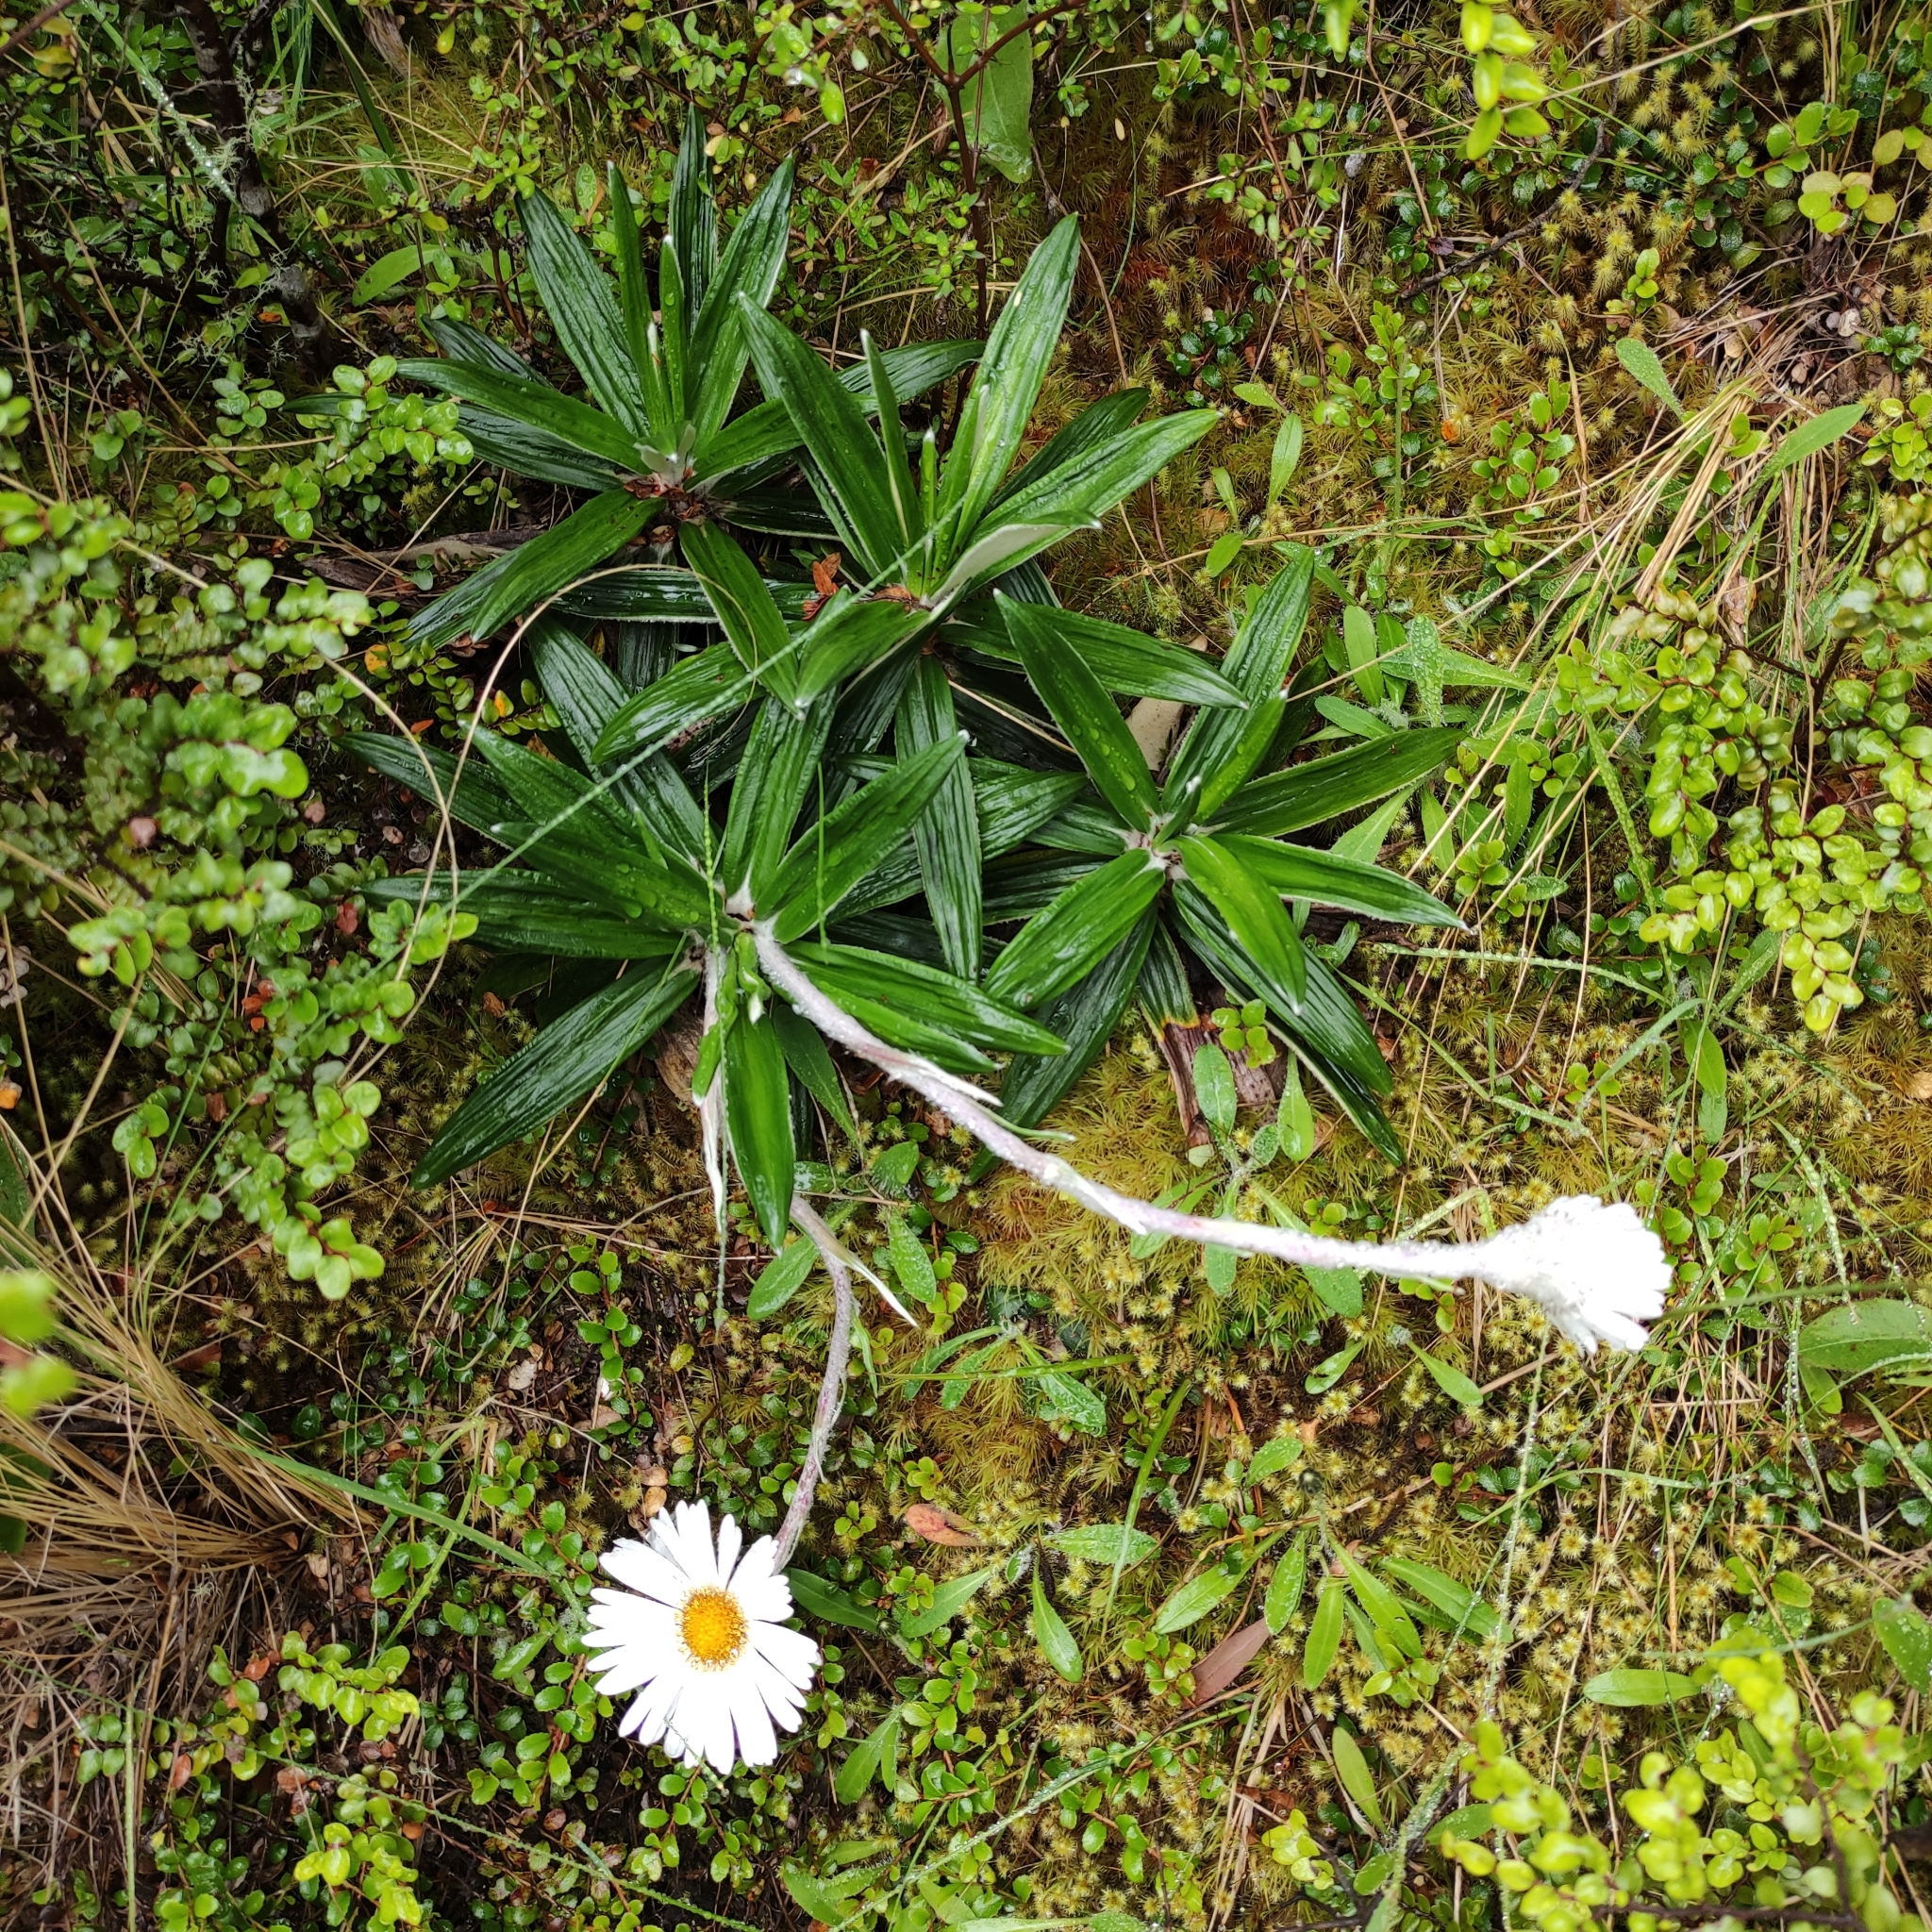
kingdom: Plantae
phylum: Tracheophyta
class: Magnoliopsida
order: Asterales
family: Asteraceae
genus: Celmisia
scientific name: Celmisia spectabilis
